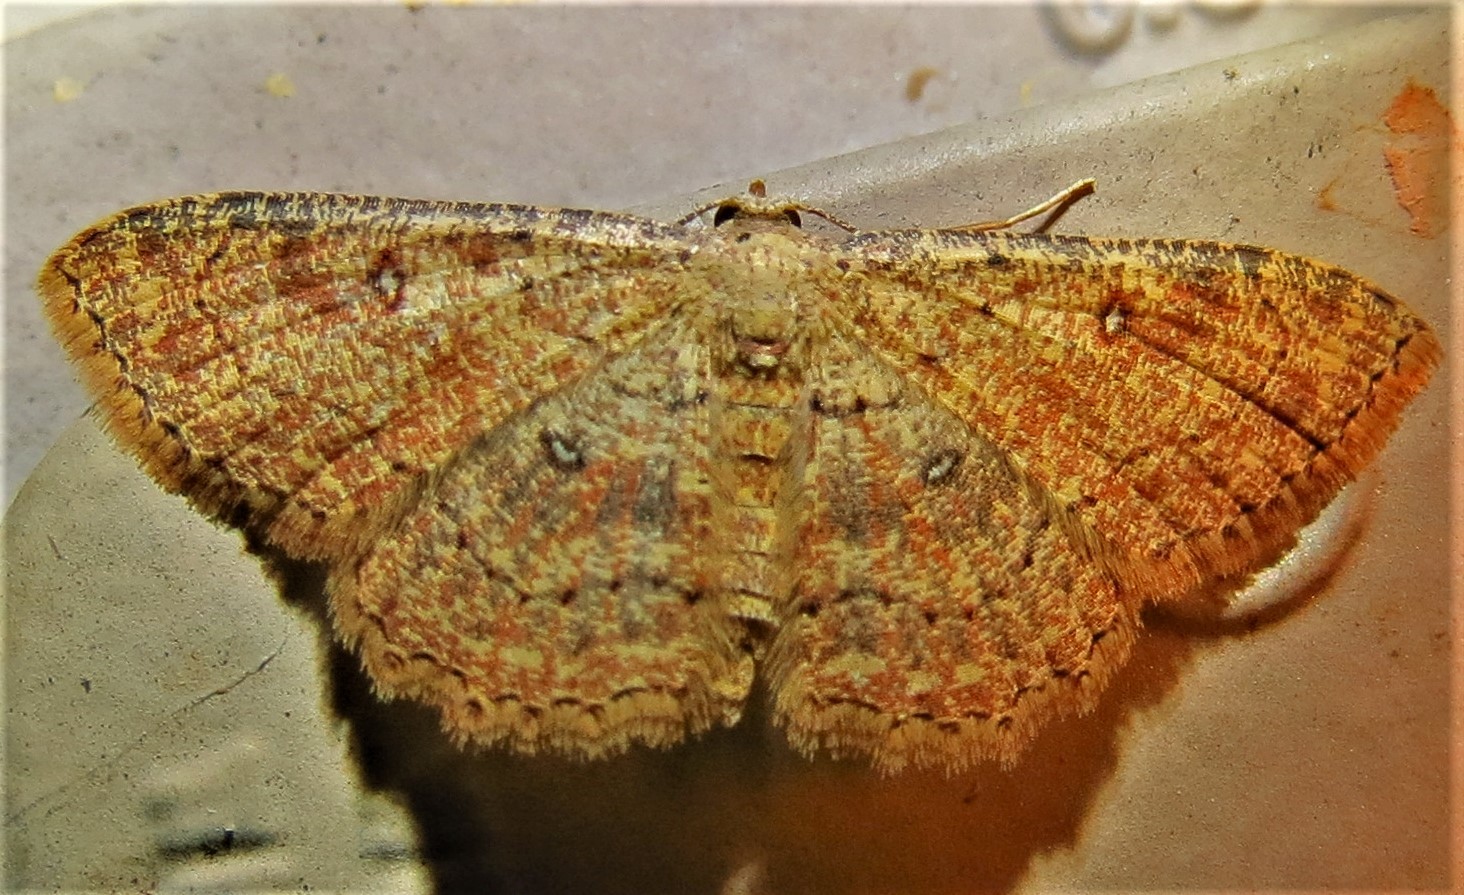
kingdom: Animalia
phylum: Arthropoda
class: Insecta
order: Lepidoptera
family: Geometridae
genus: Cyclophora
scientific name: Cyclophora nanaria
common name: Cankerworm
